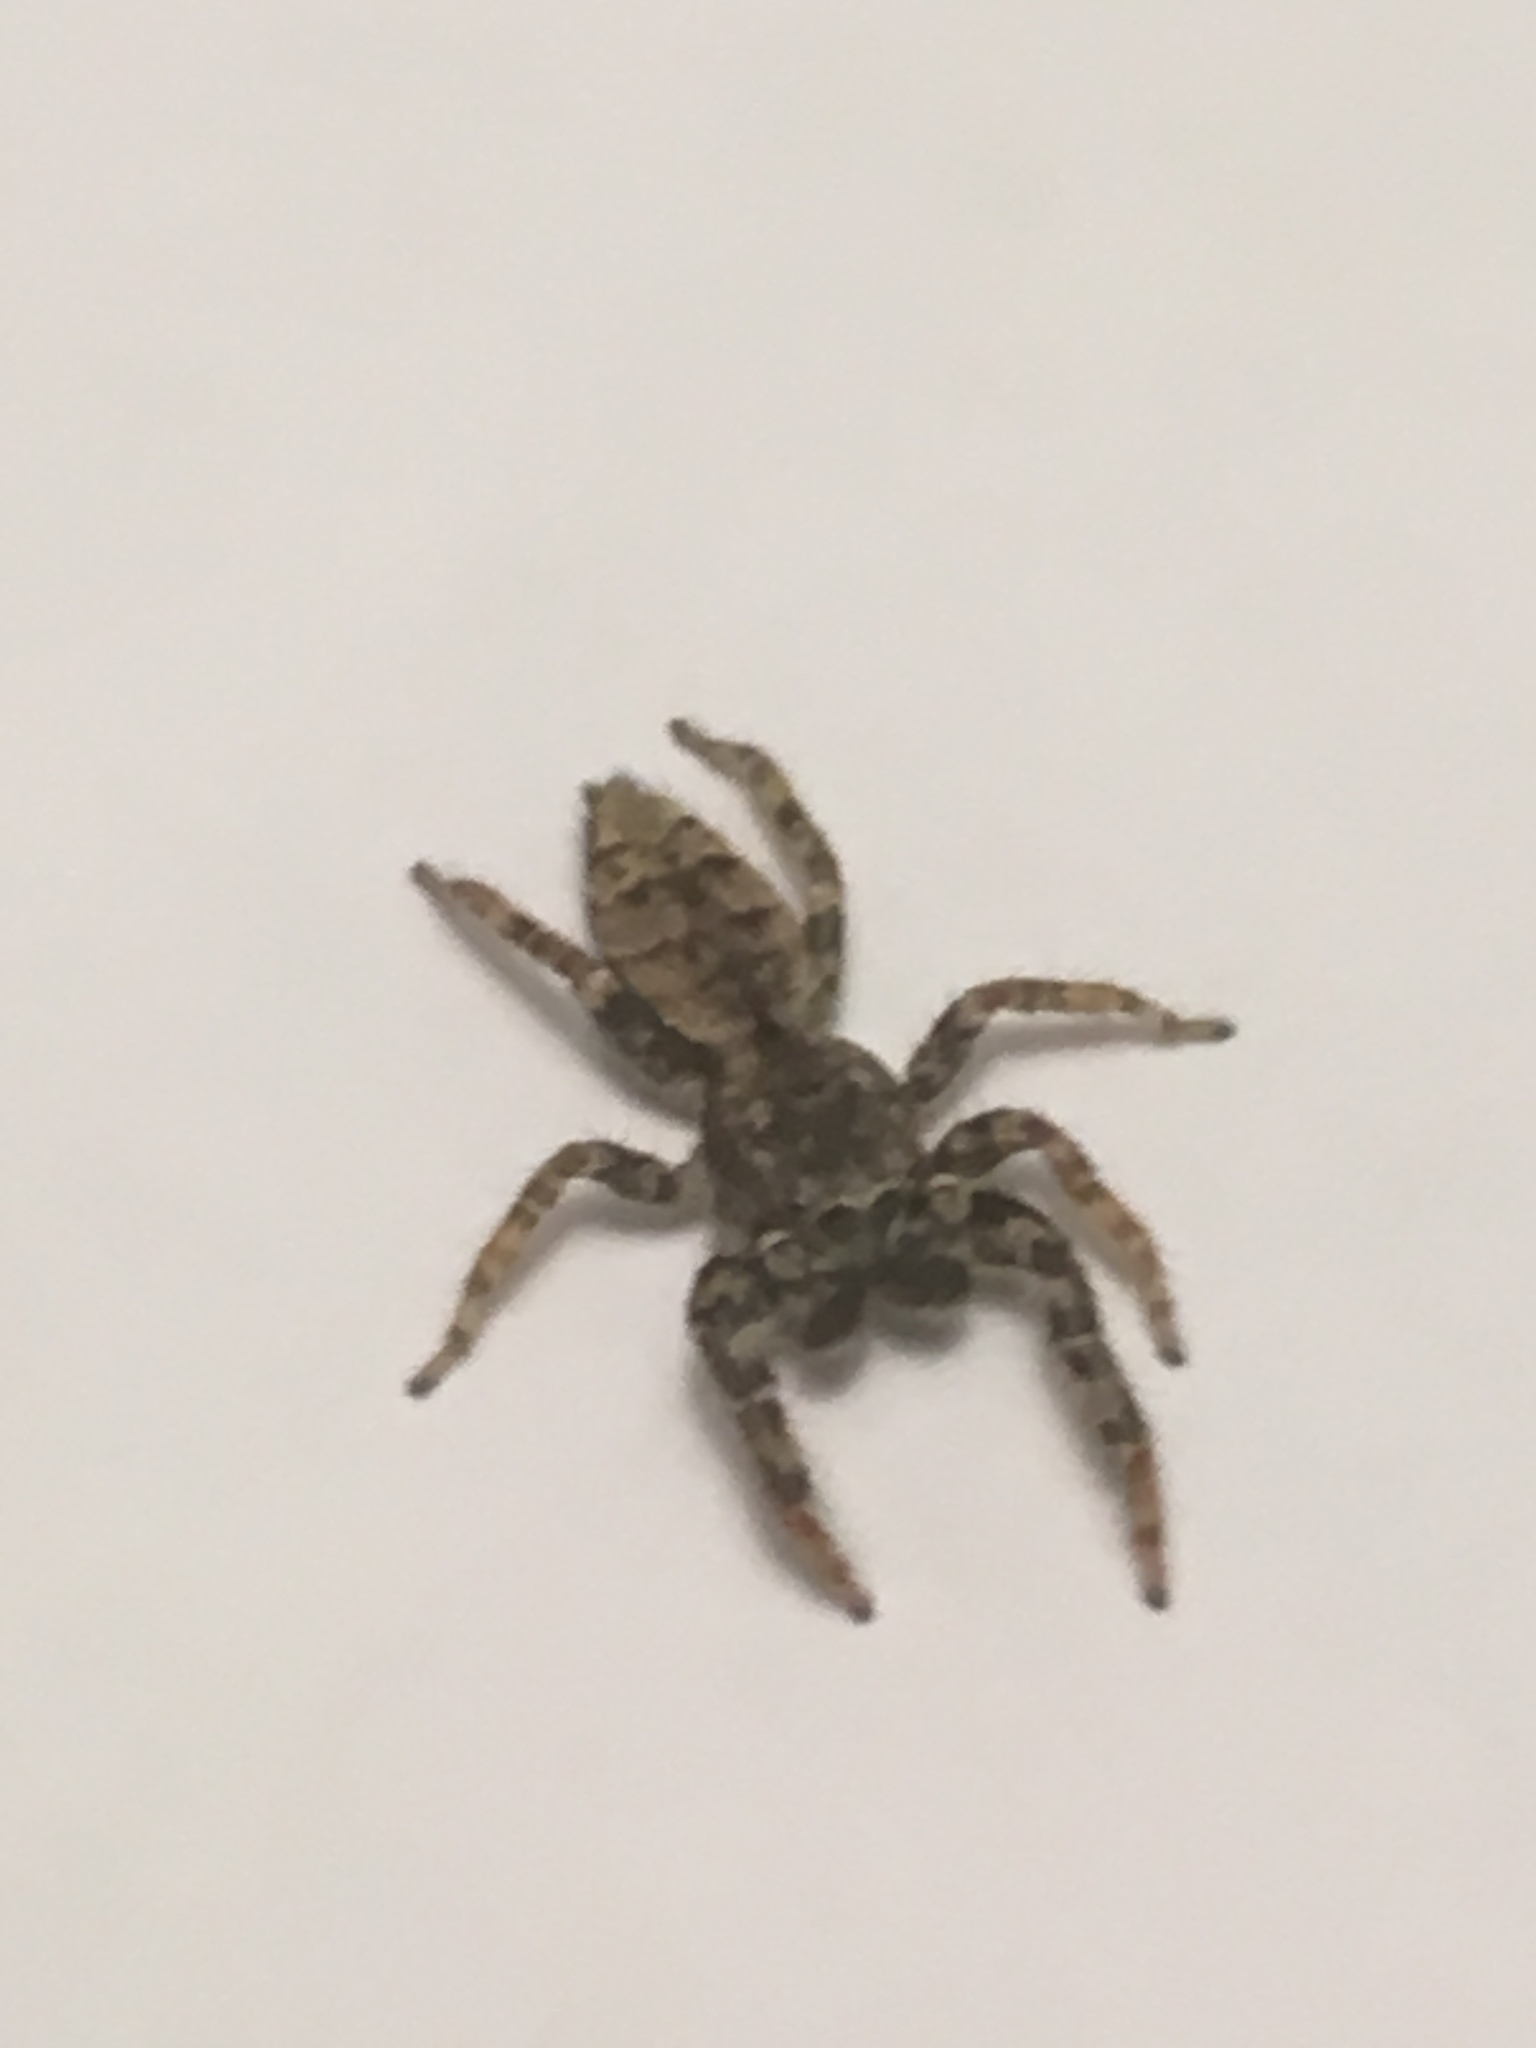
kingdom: Animalia
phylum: Arthropoda
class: Arachnida
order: Araneae
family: Salticidae
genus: Marpissa
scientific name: Marpissa muscosa
